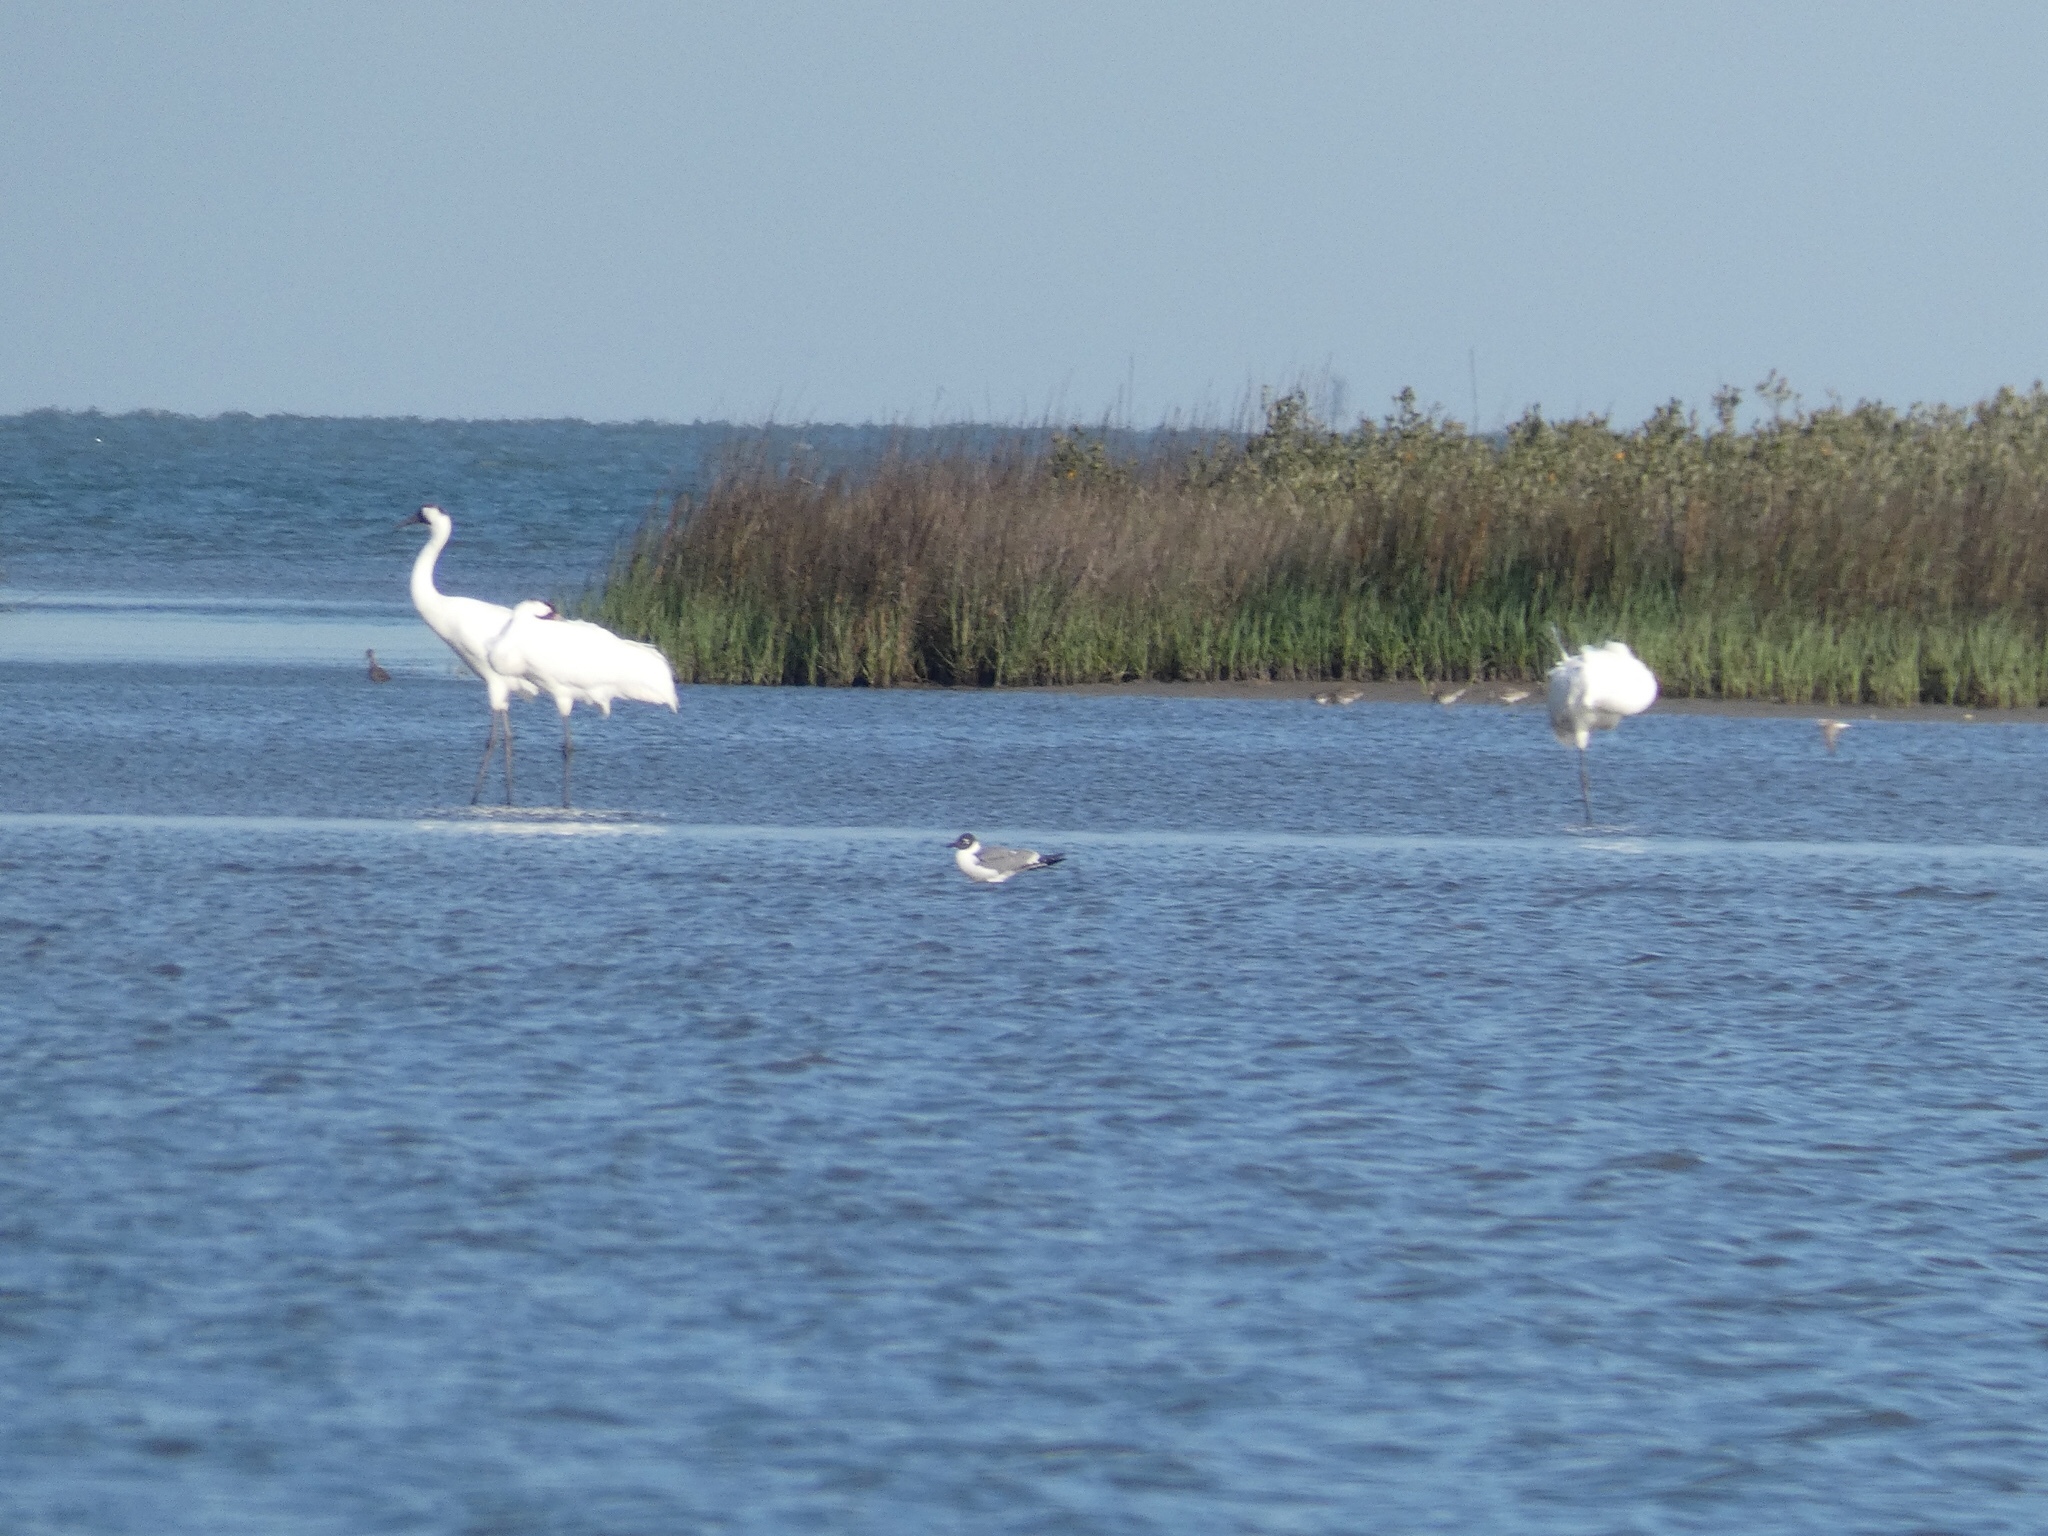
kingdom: Animalia
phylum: Chordata
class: Aves
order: Gruiformes
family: Gruidae
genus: Grus
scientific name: Grus americana
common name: Whooping crane
